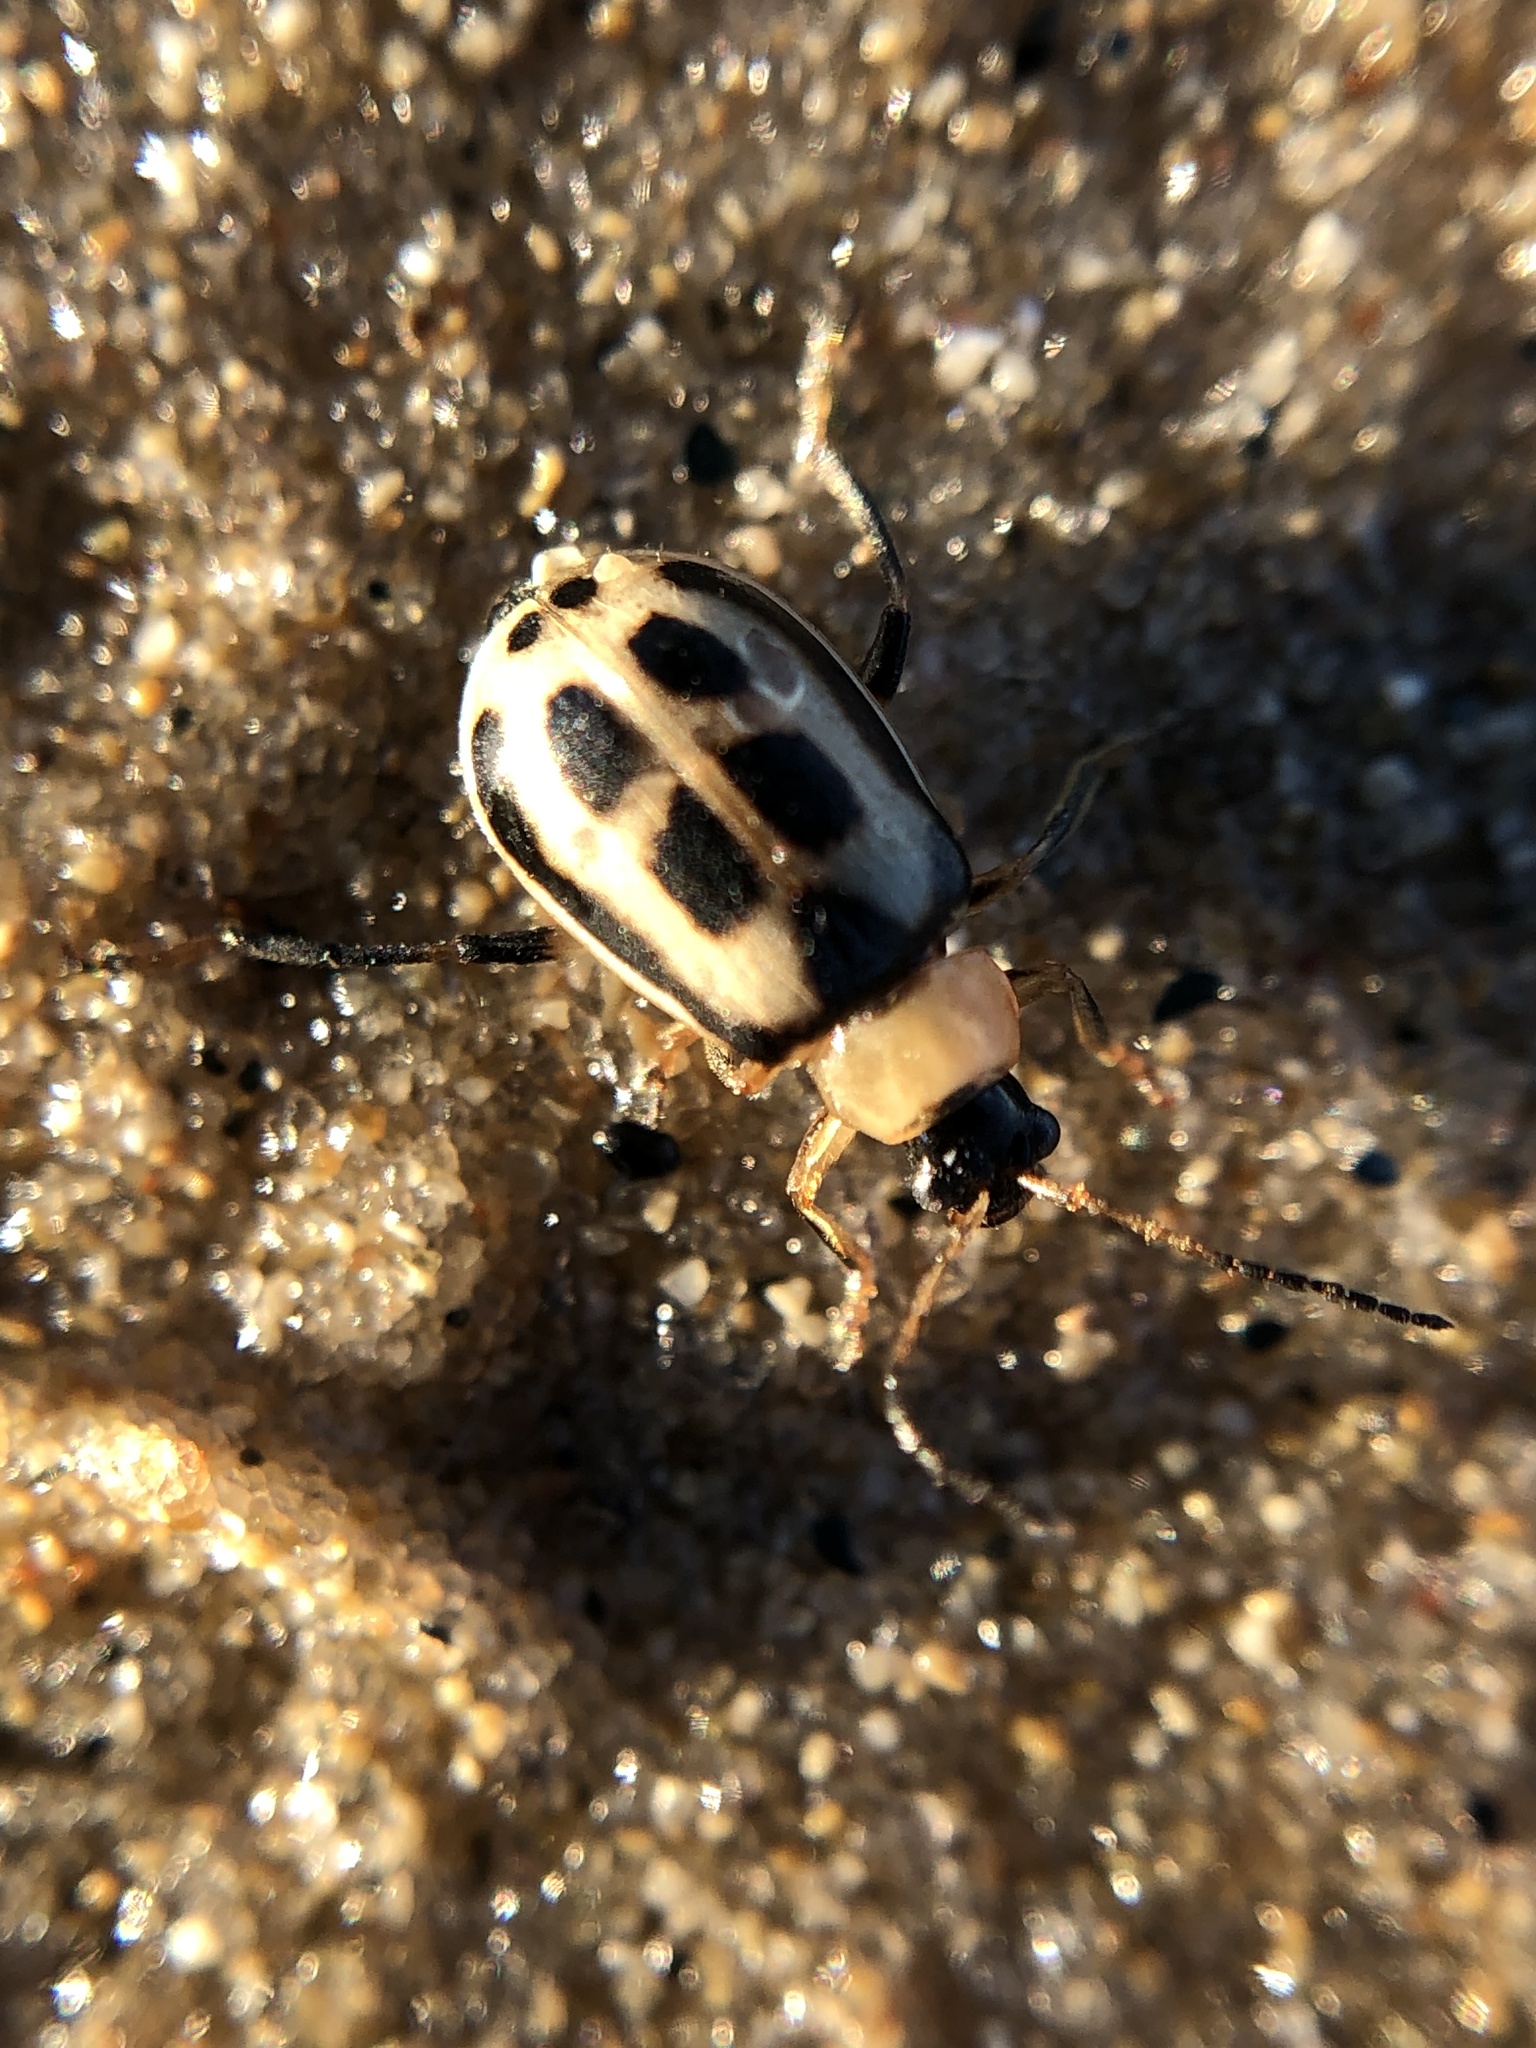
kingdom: Animalia
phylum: Arthropoda
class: Insecta
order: Coleoptera
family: Chrysomelidae
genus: Cerotoma
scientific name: Cerotoma trifurcata
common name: Bean leaf beetle
